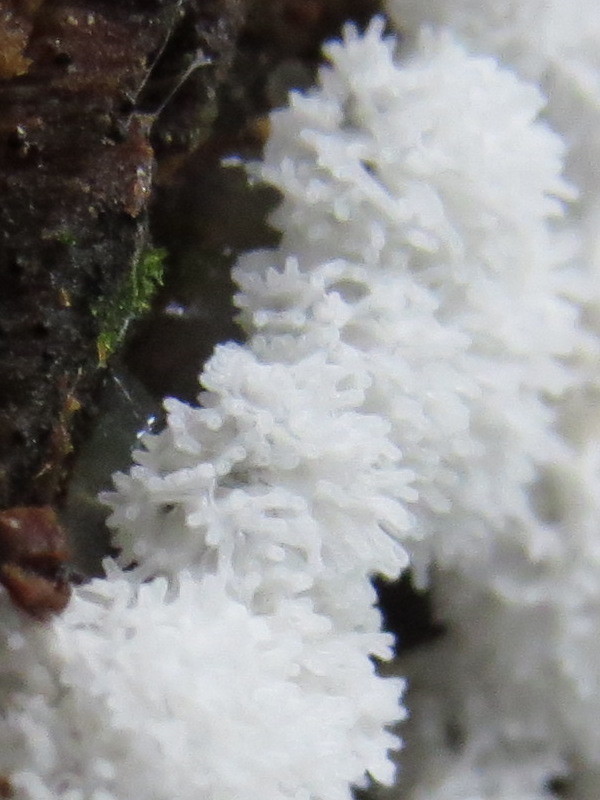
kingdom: Protozoa
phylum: Mycetozoa
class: Protosteliomycetes
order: Ceratiomyxales
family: Ceratiomyxaceae
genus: Ceratiomyxa
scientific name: Ceratiomyxa fruticulosa
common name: Honeycomb coral slime mold
